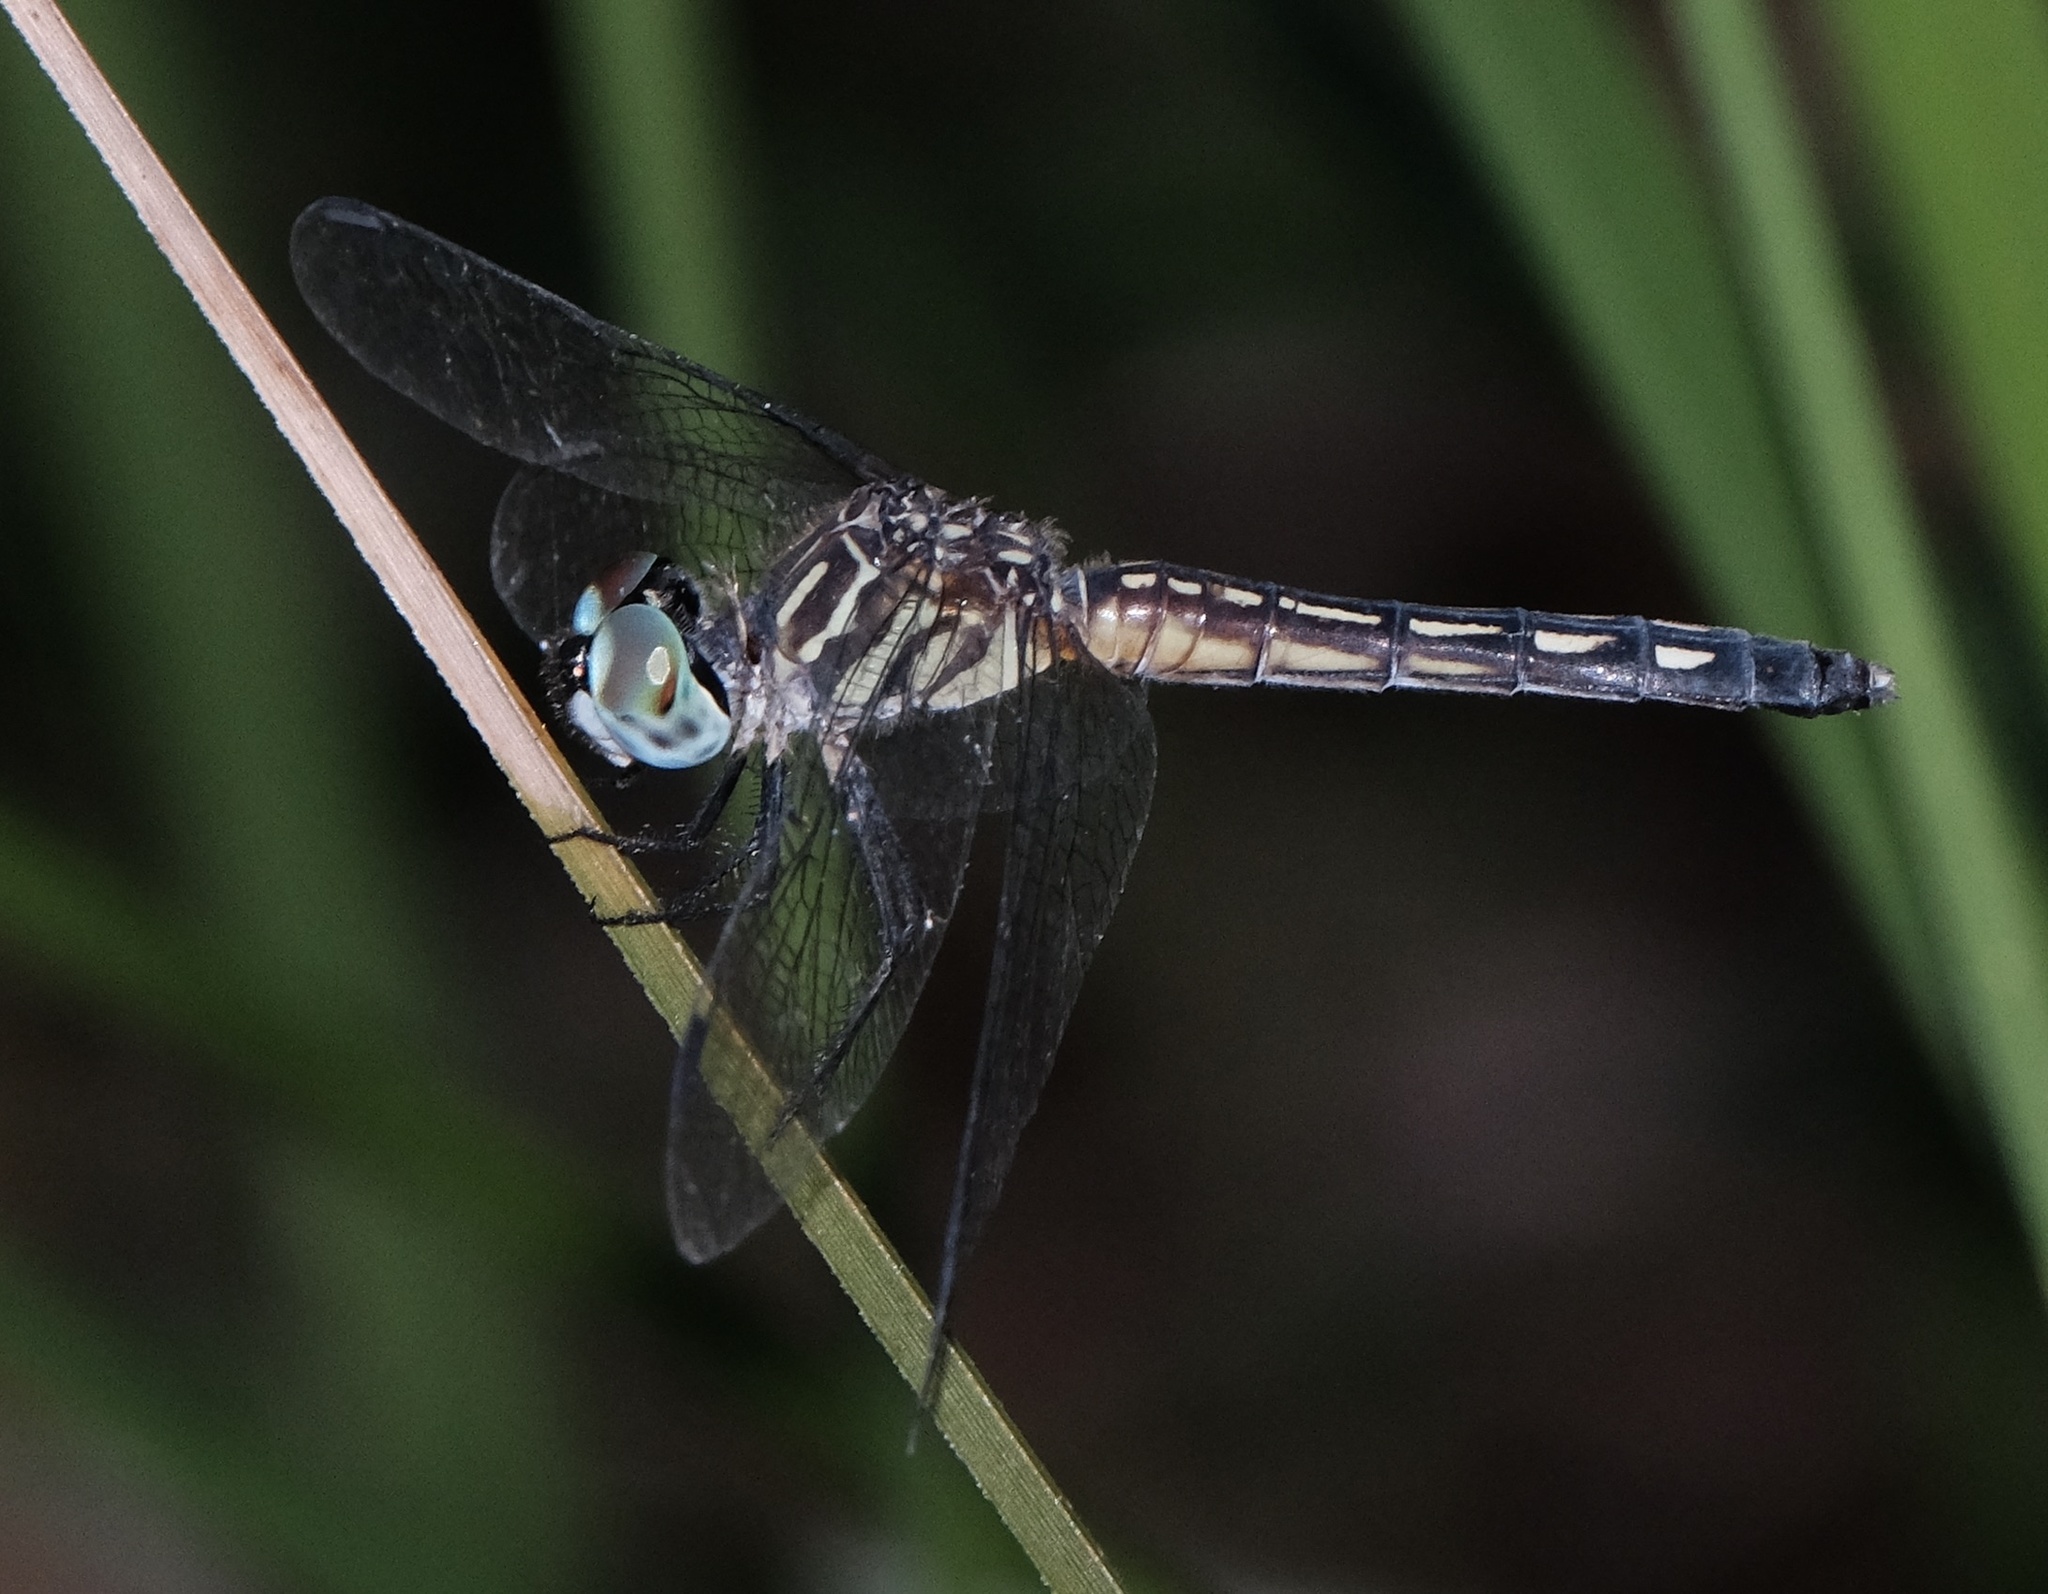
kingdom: Animalia
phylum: Arthropoda
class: Insecta
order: Odonata
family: Libellulidae
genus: Pachydiplax
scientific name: Pachydiplax longipennis
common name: Blue dasher
